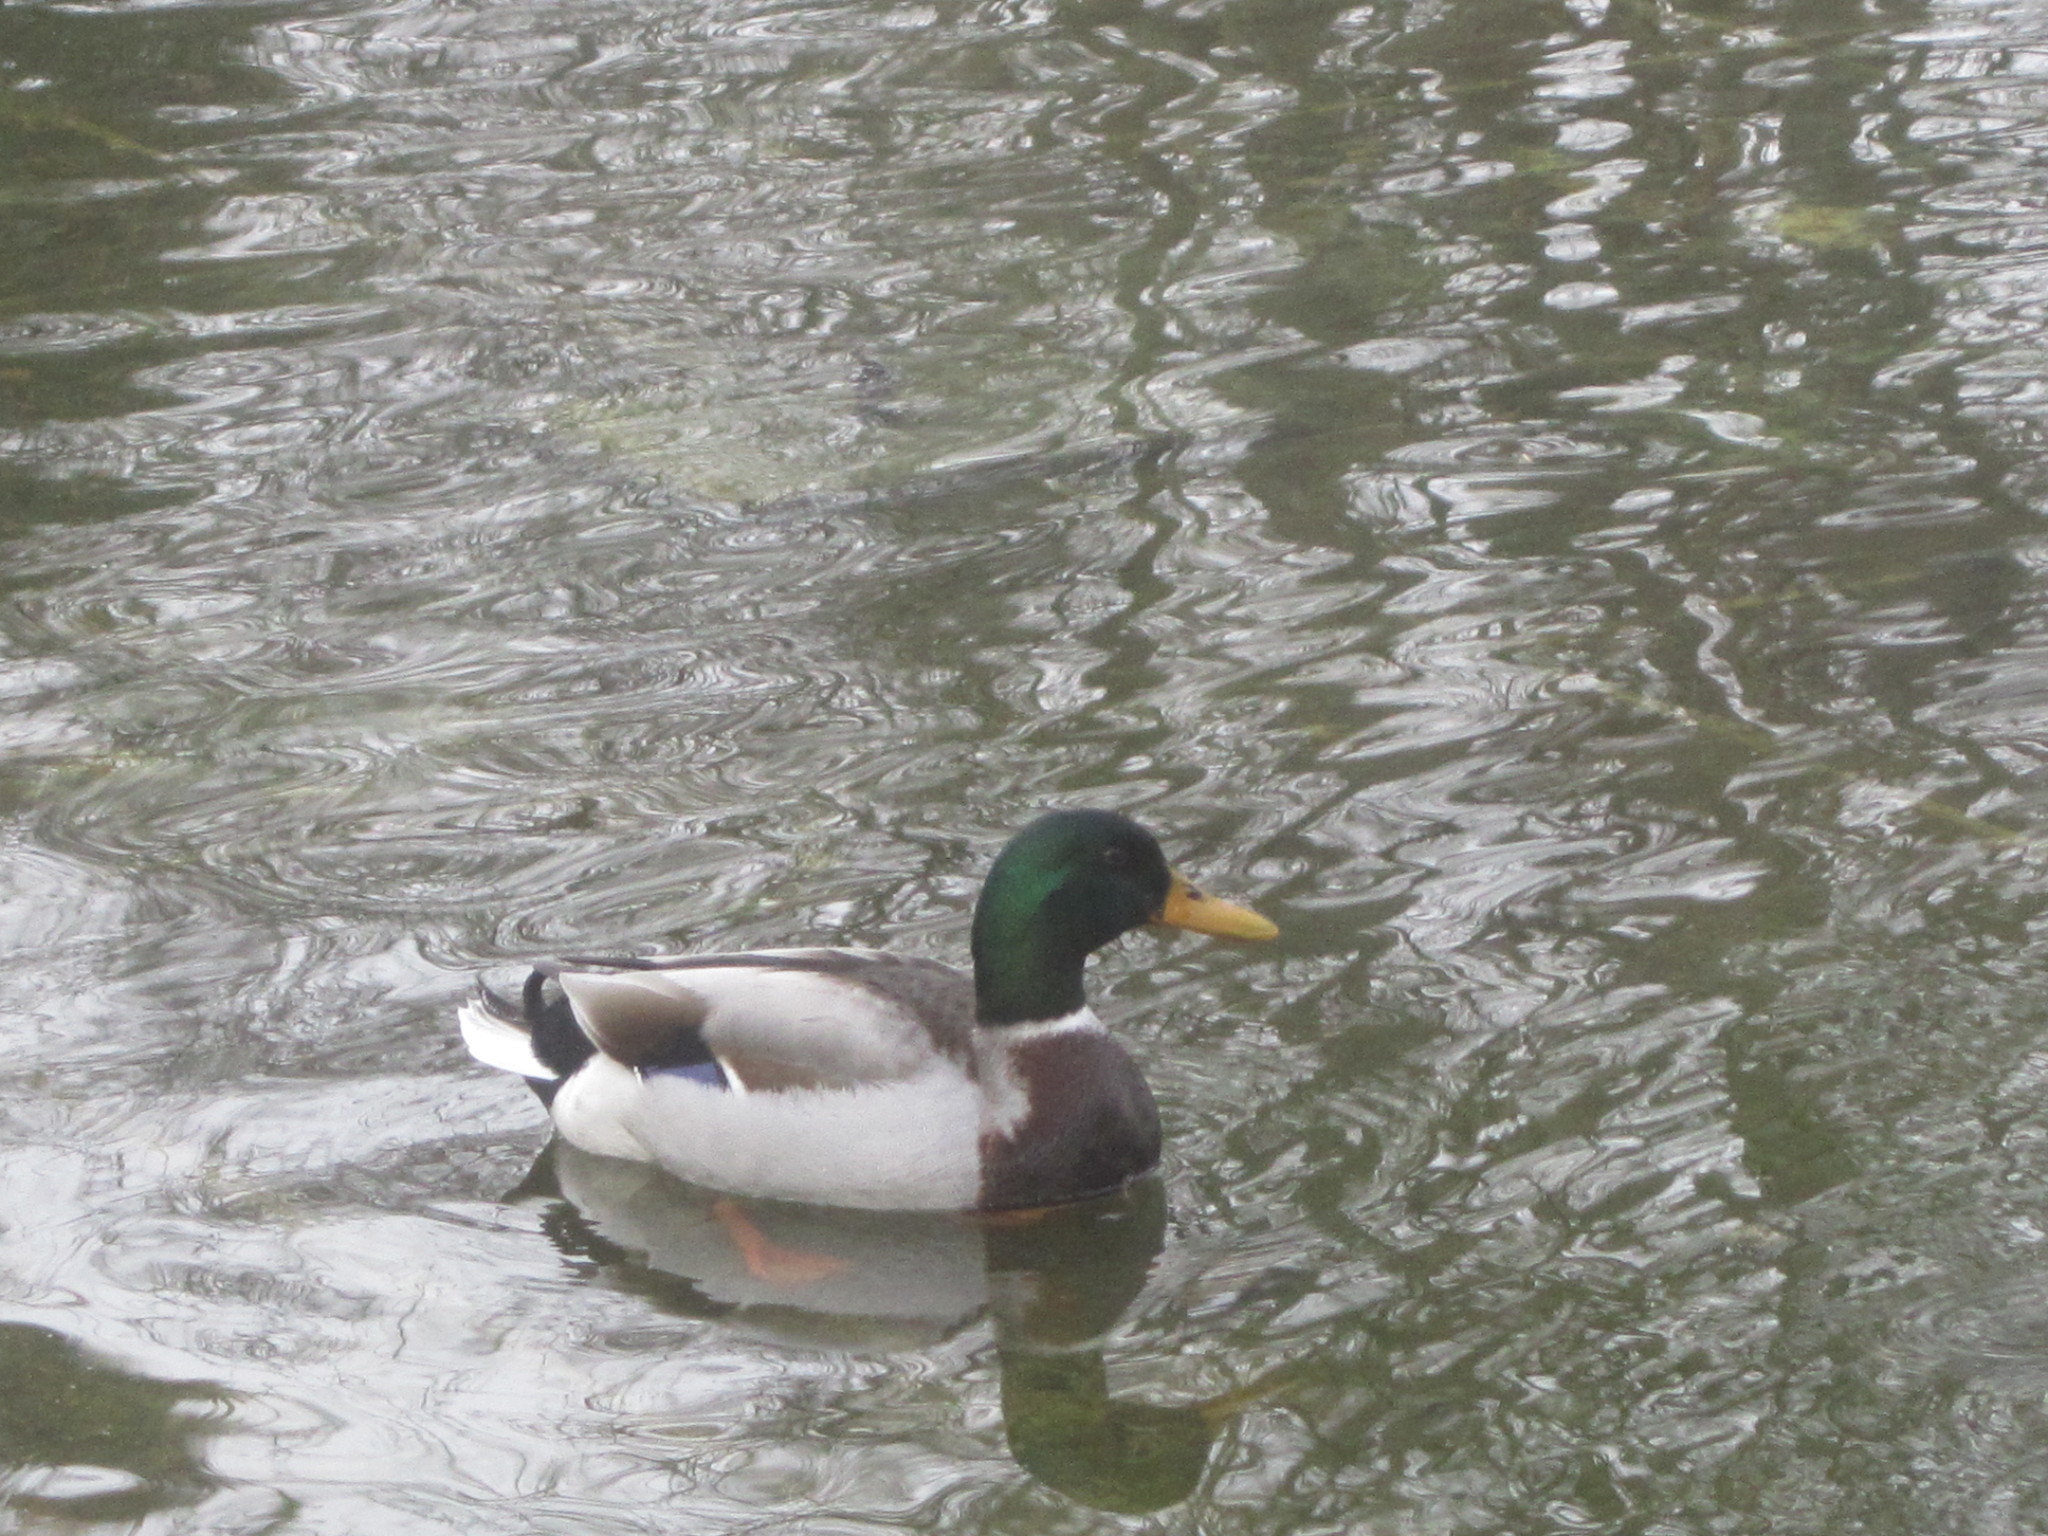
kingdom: Animalia
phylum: Chordata
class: Aves
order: Anseriformes
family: Anatidae
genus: Anas
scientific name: Anas platyrhynchos
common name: Mallard
